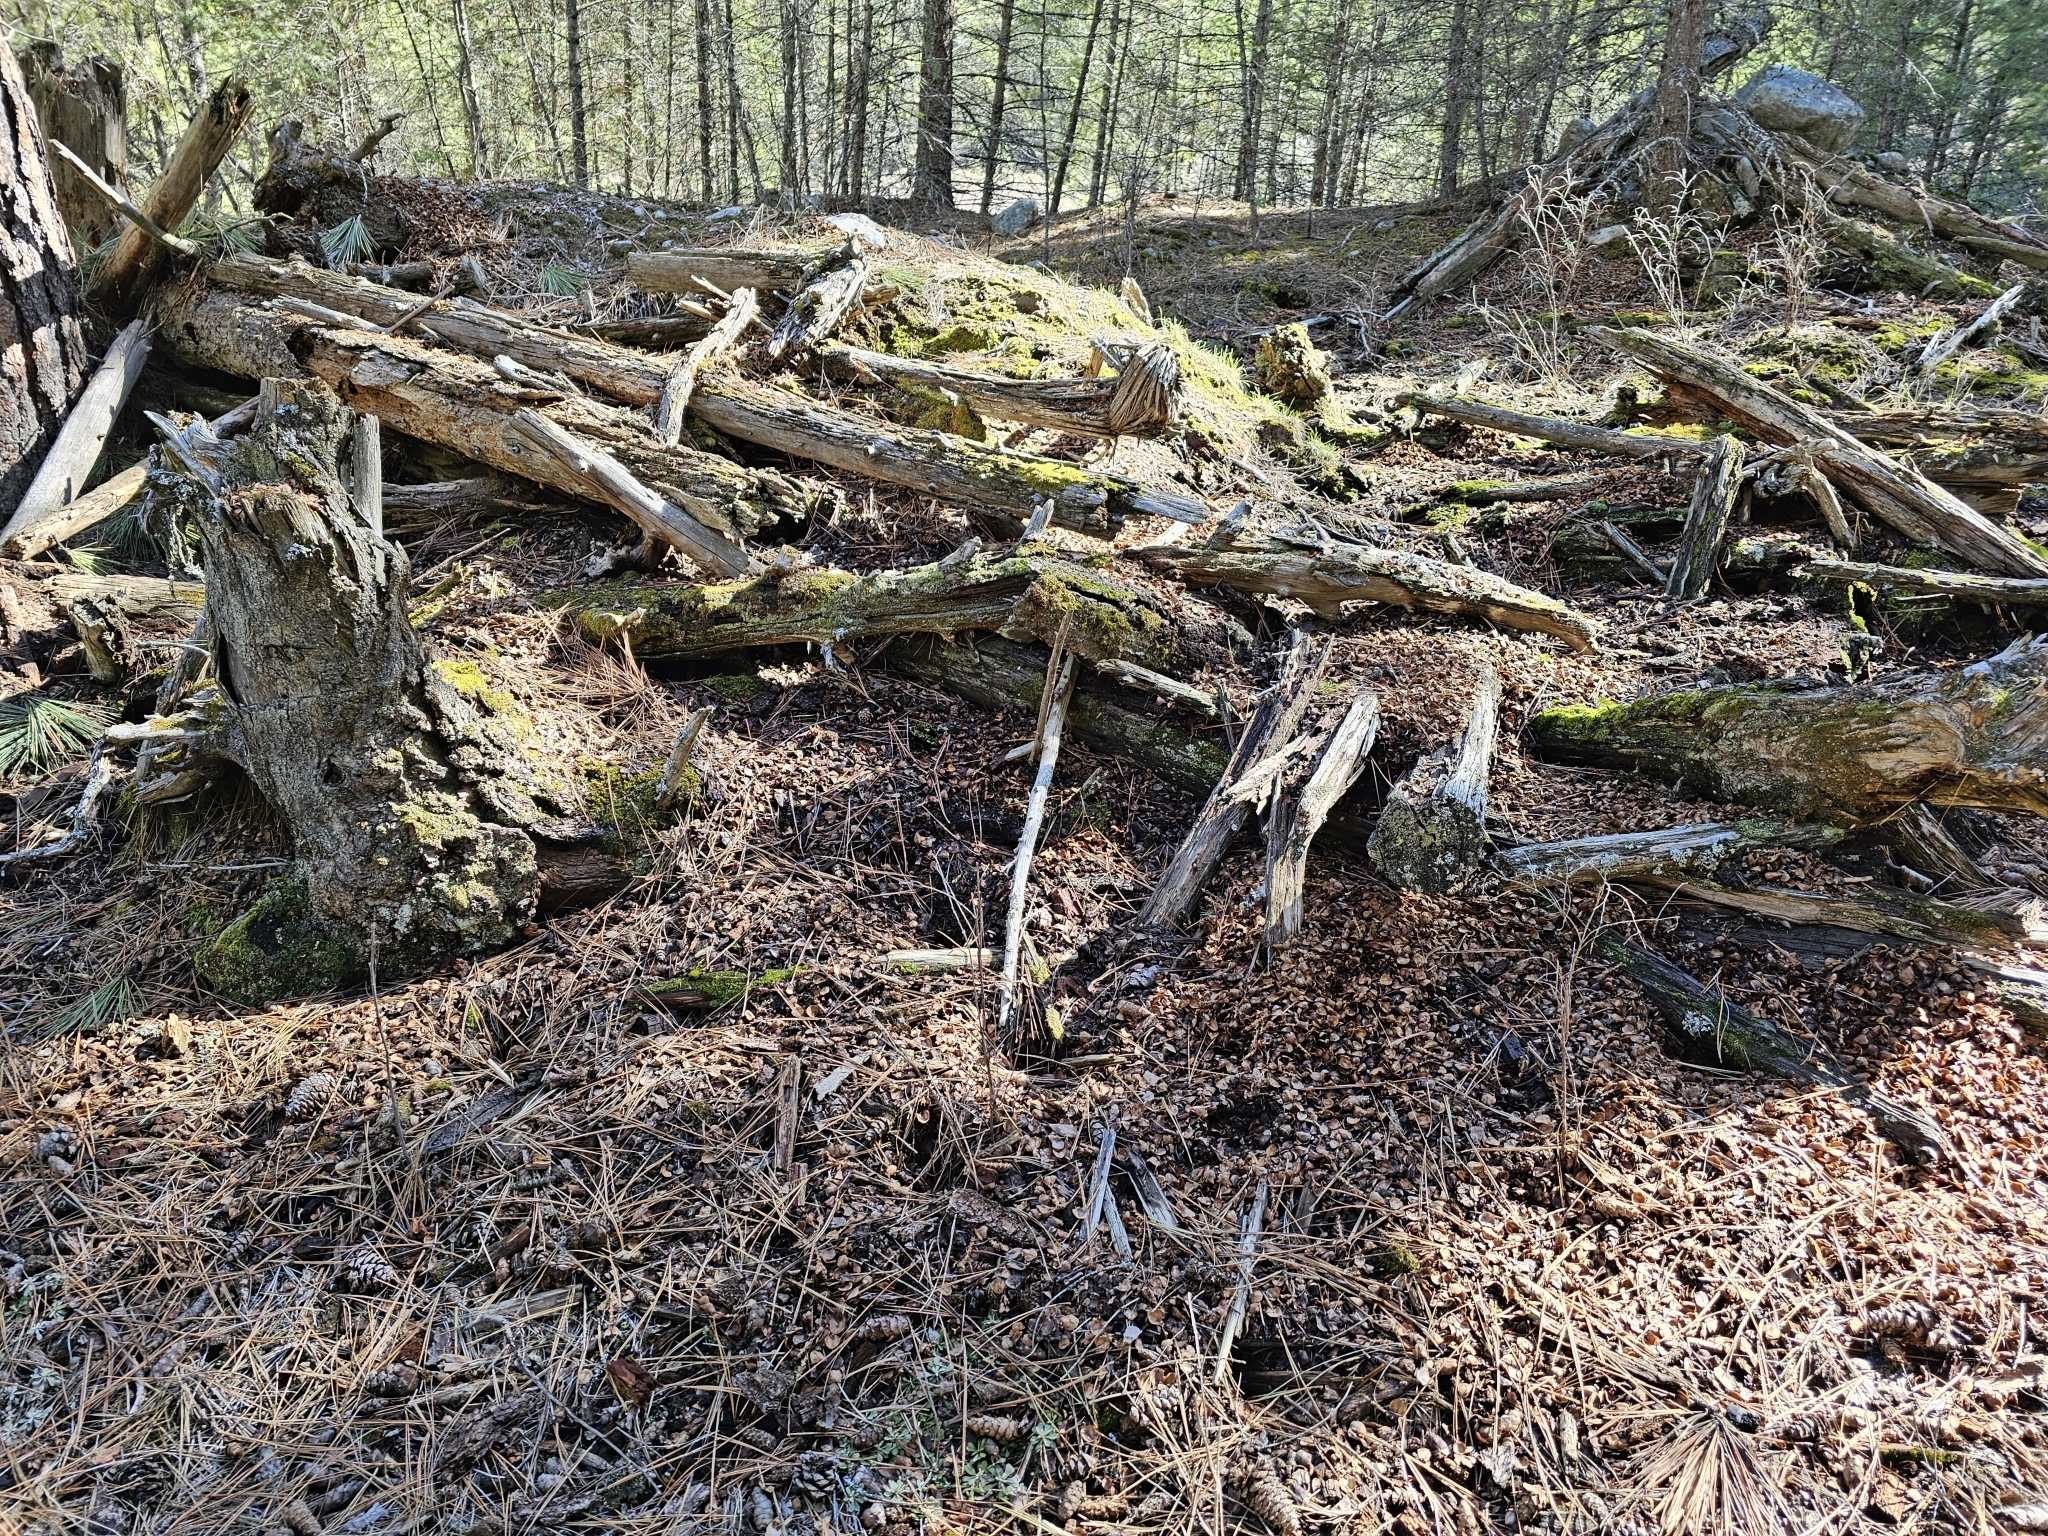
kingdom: Animalia
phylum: Chordata
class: Mammalia
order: Rodentia
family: Sciuridae
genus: Tamiasciurus
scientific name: Tamiasciurus hudsonicus
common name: Red squirrel
